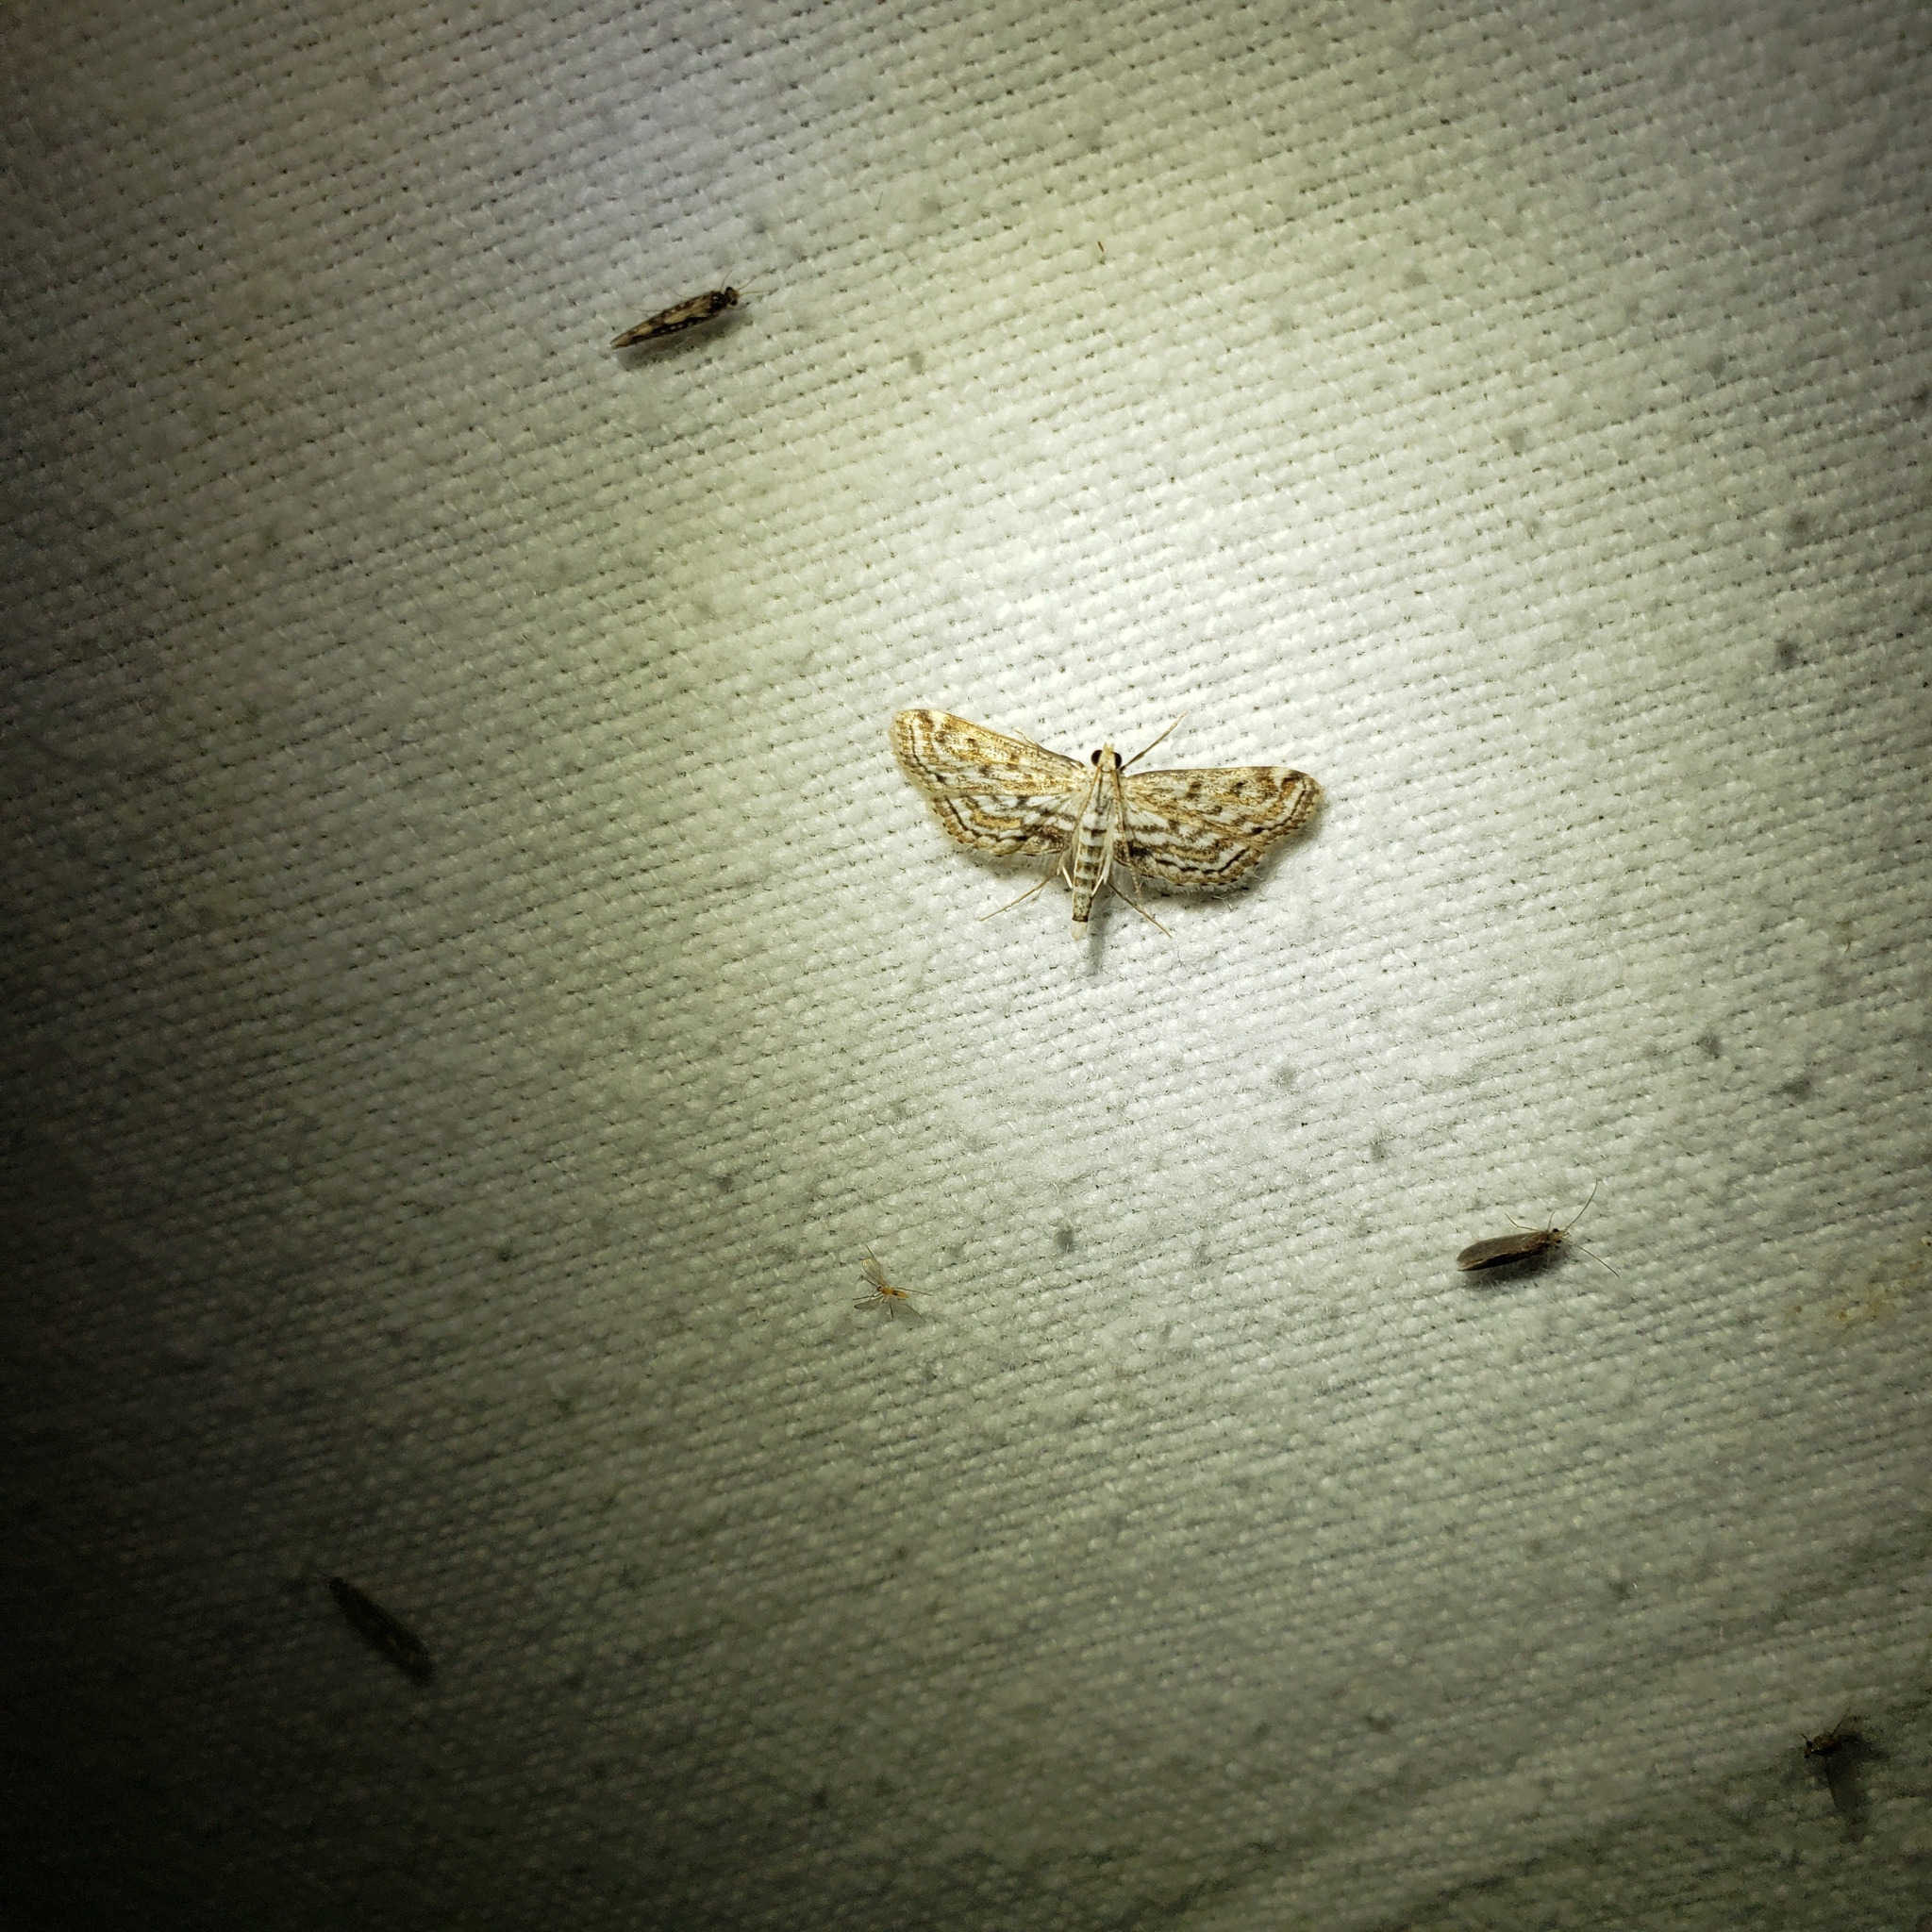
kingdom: Animalia
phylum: Arthropoda
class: Insecta
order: Lepidoptera
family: Crambidae
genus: Parapoynx
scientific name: Parapoynx allionealis
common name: Bladderwort casemaker
